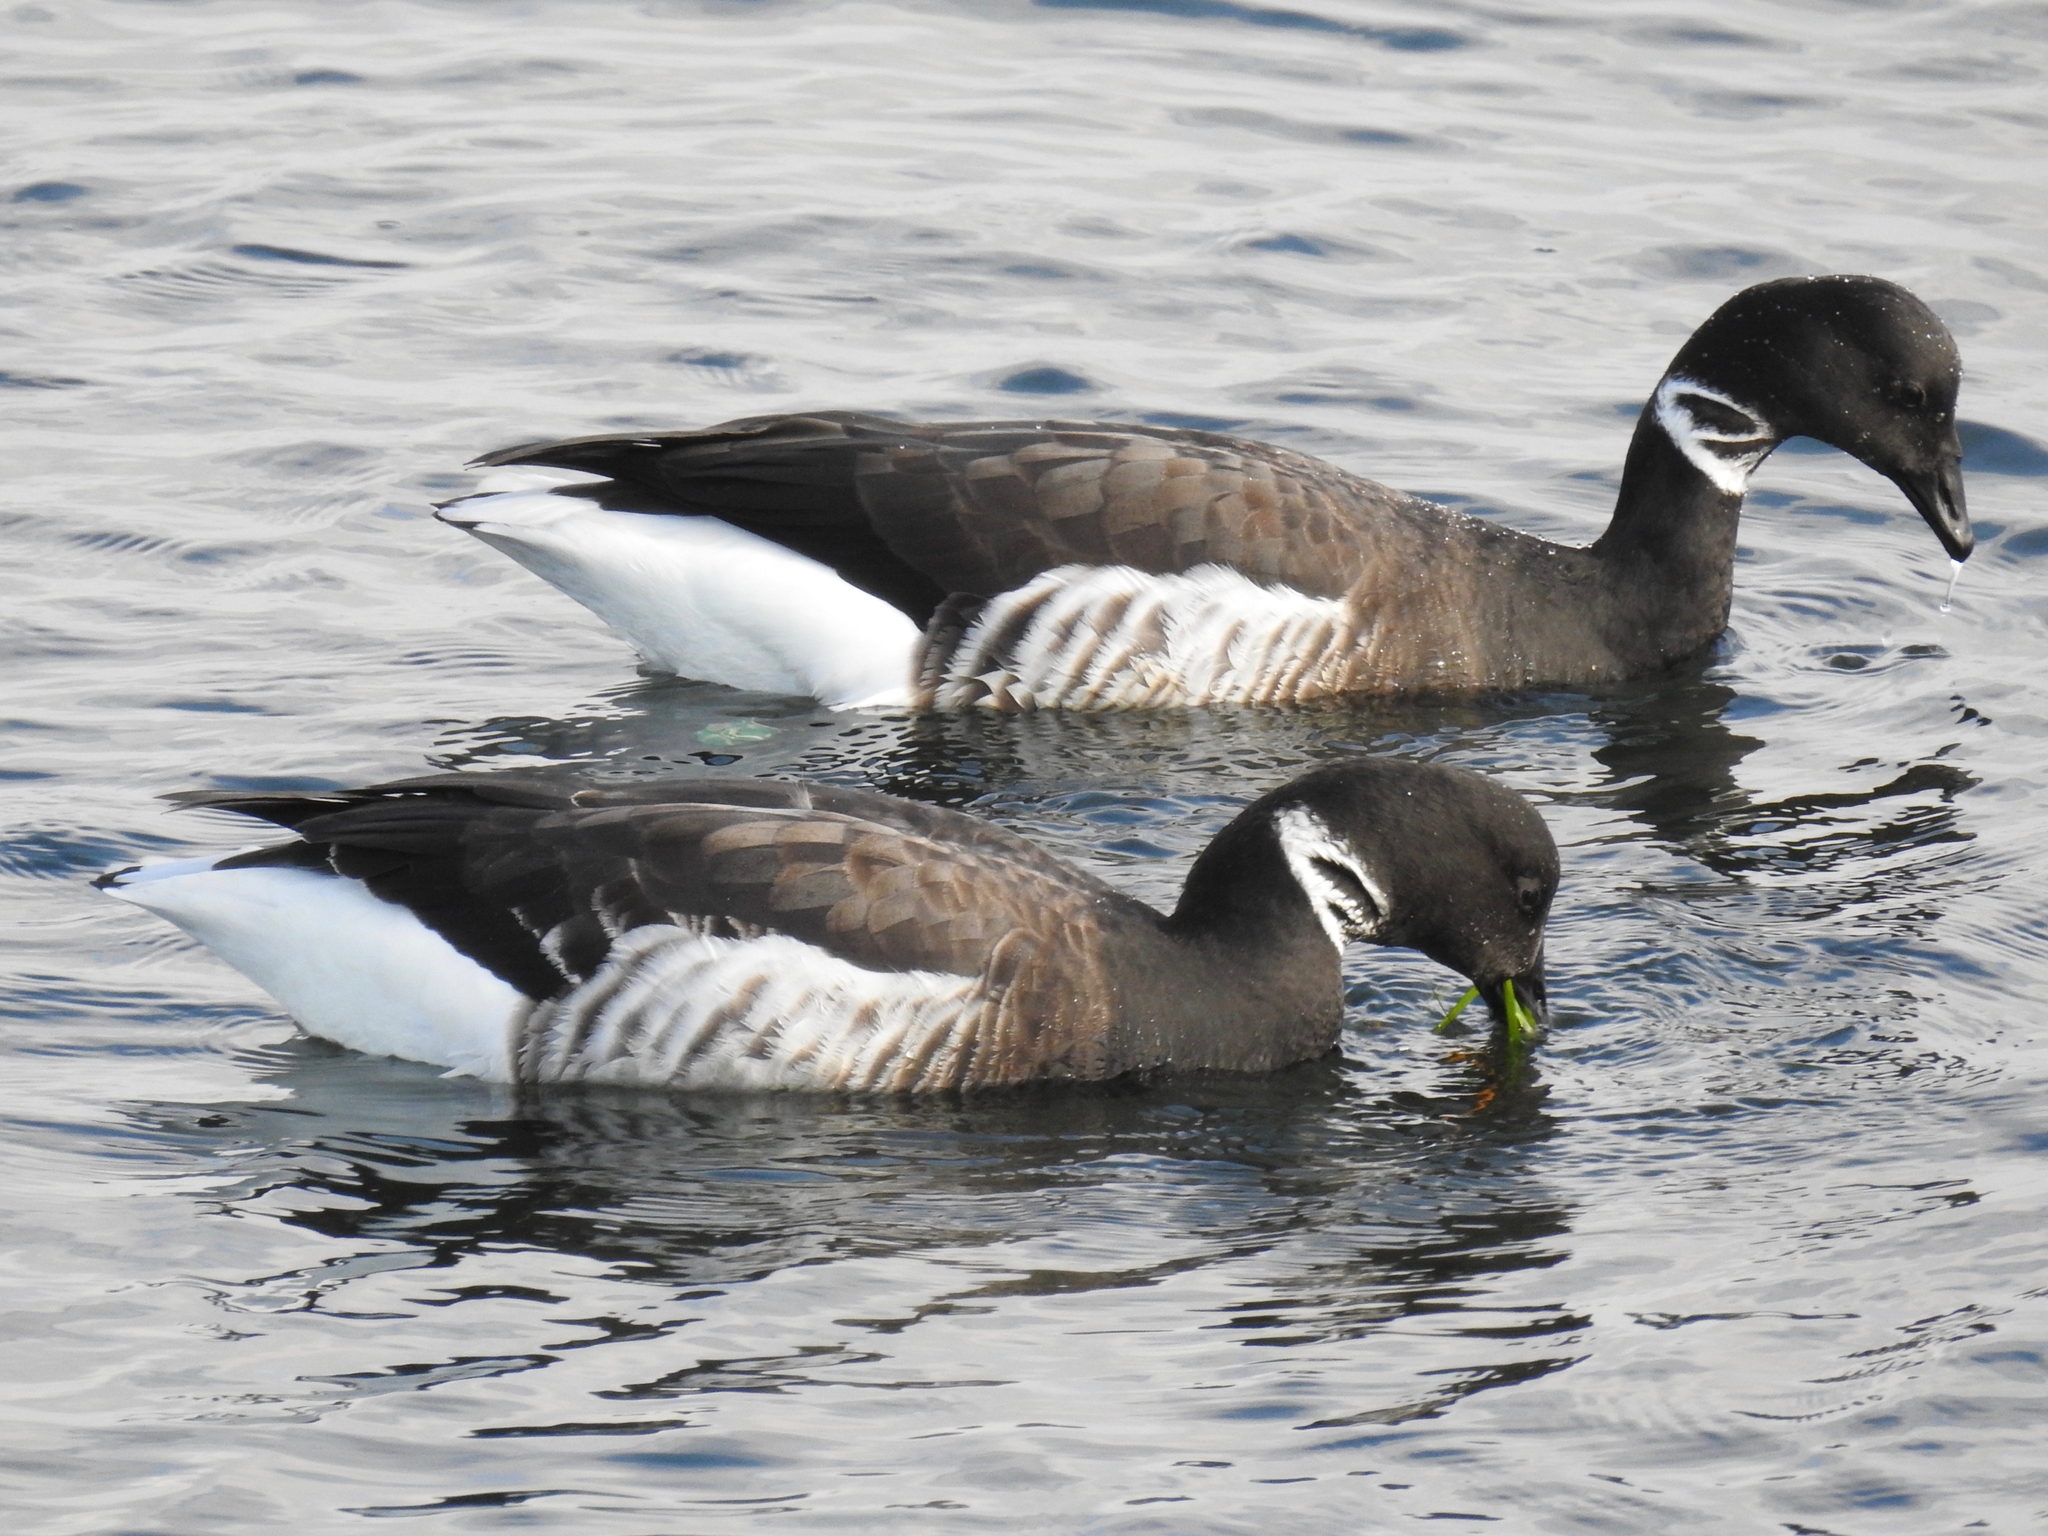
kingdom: Animalia
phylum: Chordata
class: Aves
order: Anseriformes
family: Anatidae
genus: Branta
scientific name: Branta bernicla
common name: Brant goose
